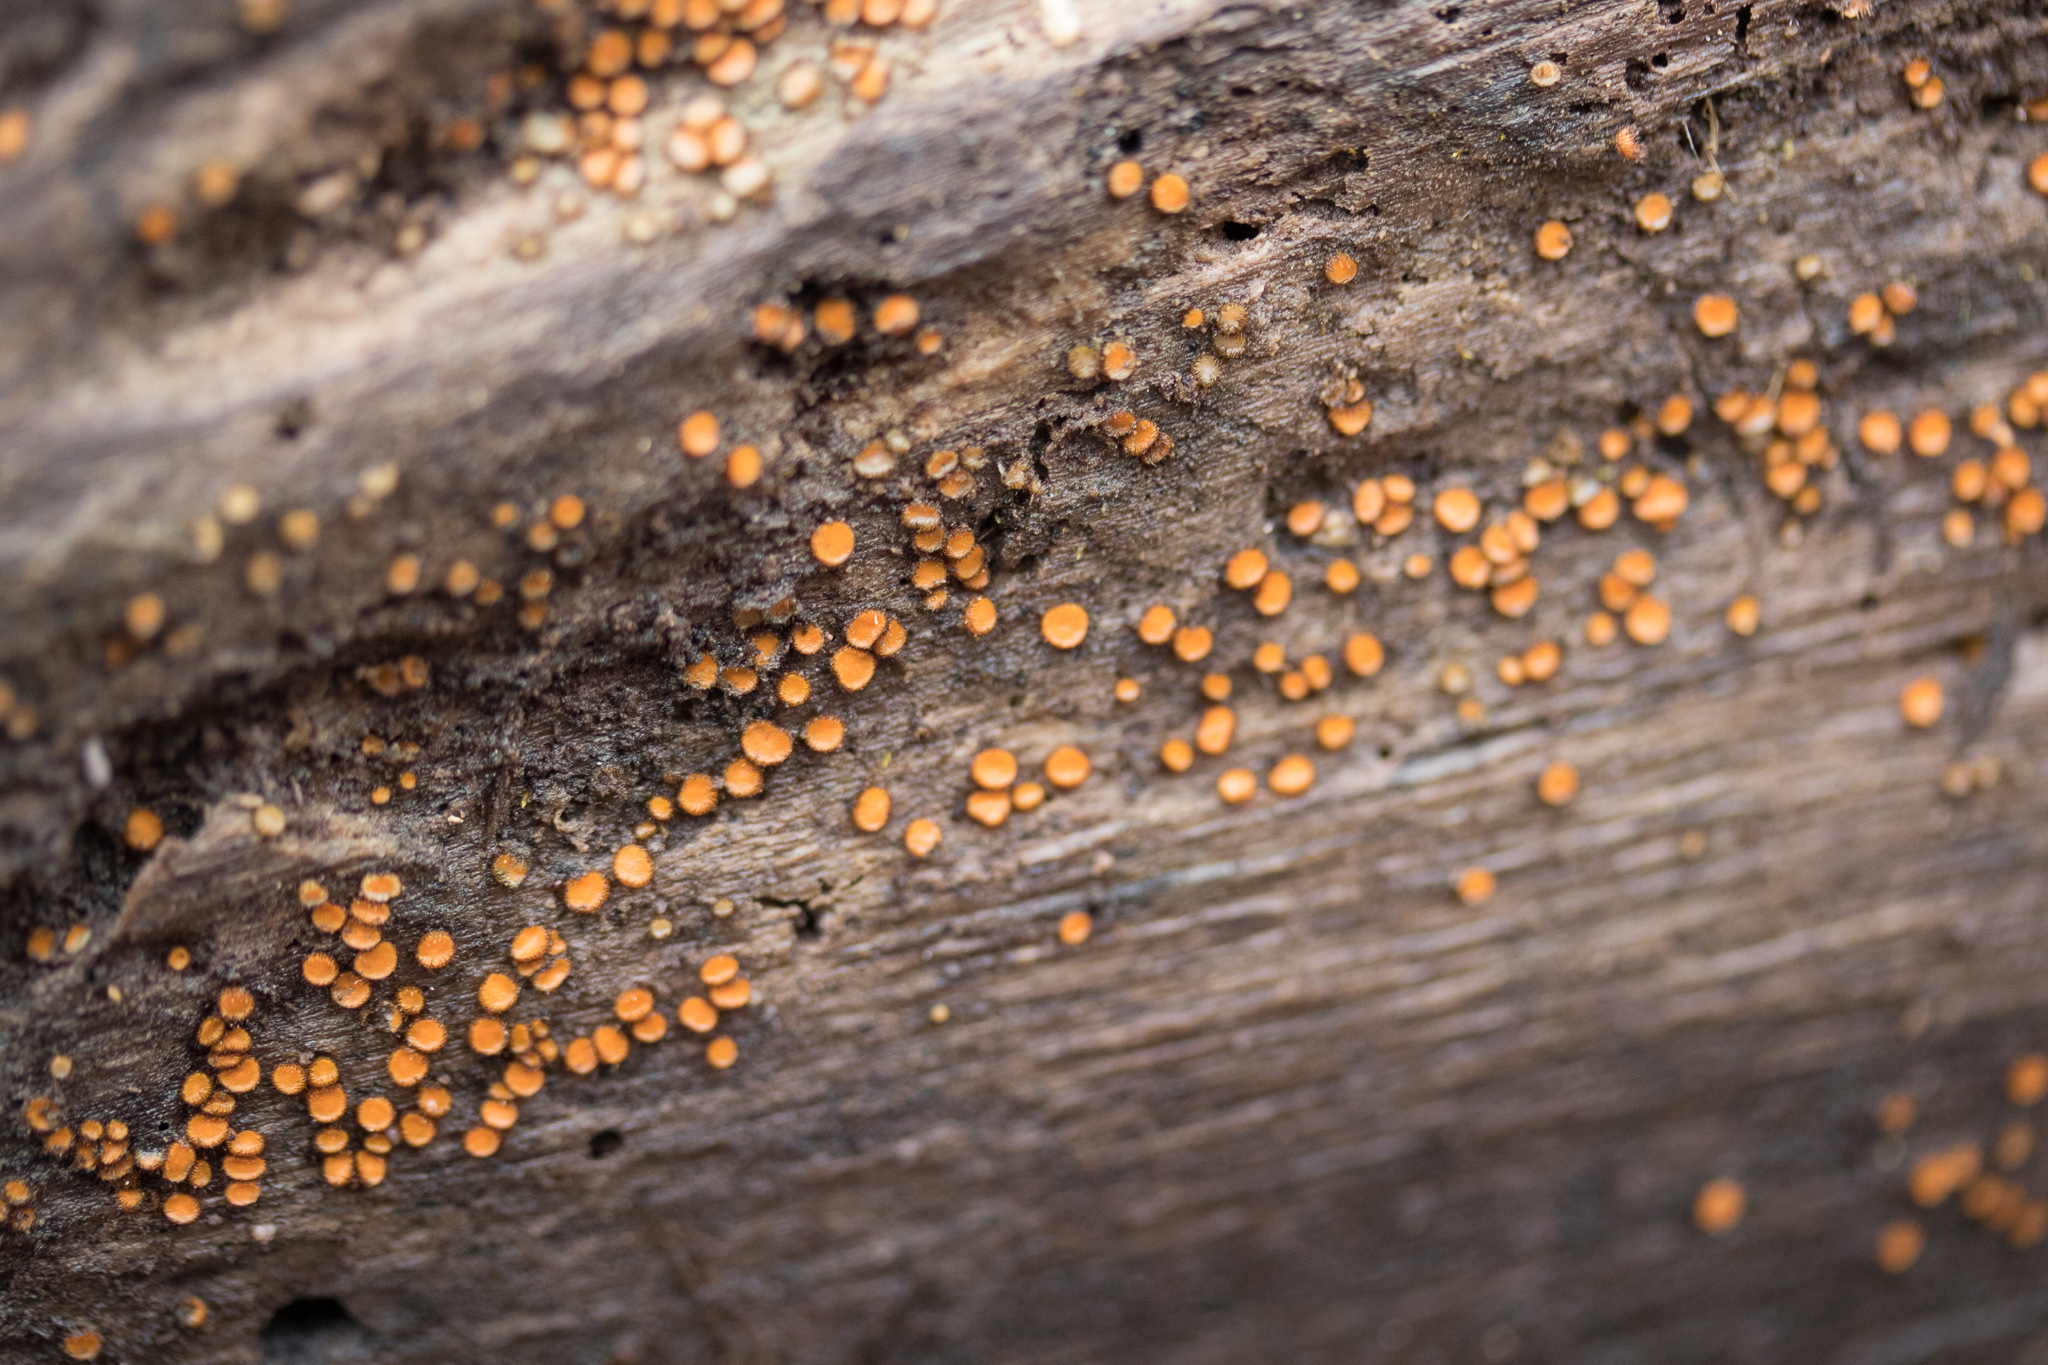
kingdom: Fungi
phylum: Ascomycota
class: Pezizomycetes
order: Pezizales
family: Pyronemataceae
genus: Scutellinia
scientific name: Scutellinia subhirtella
